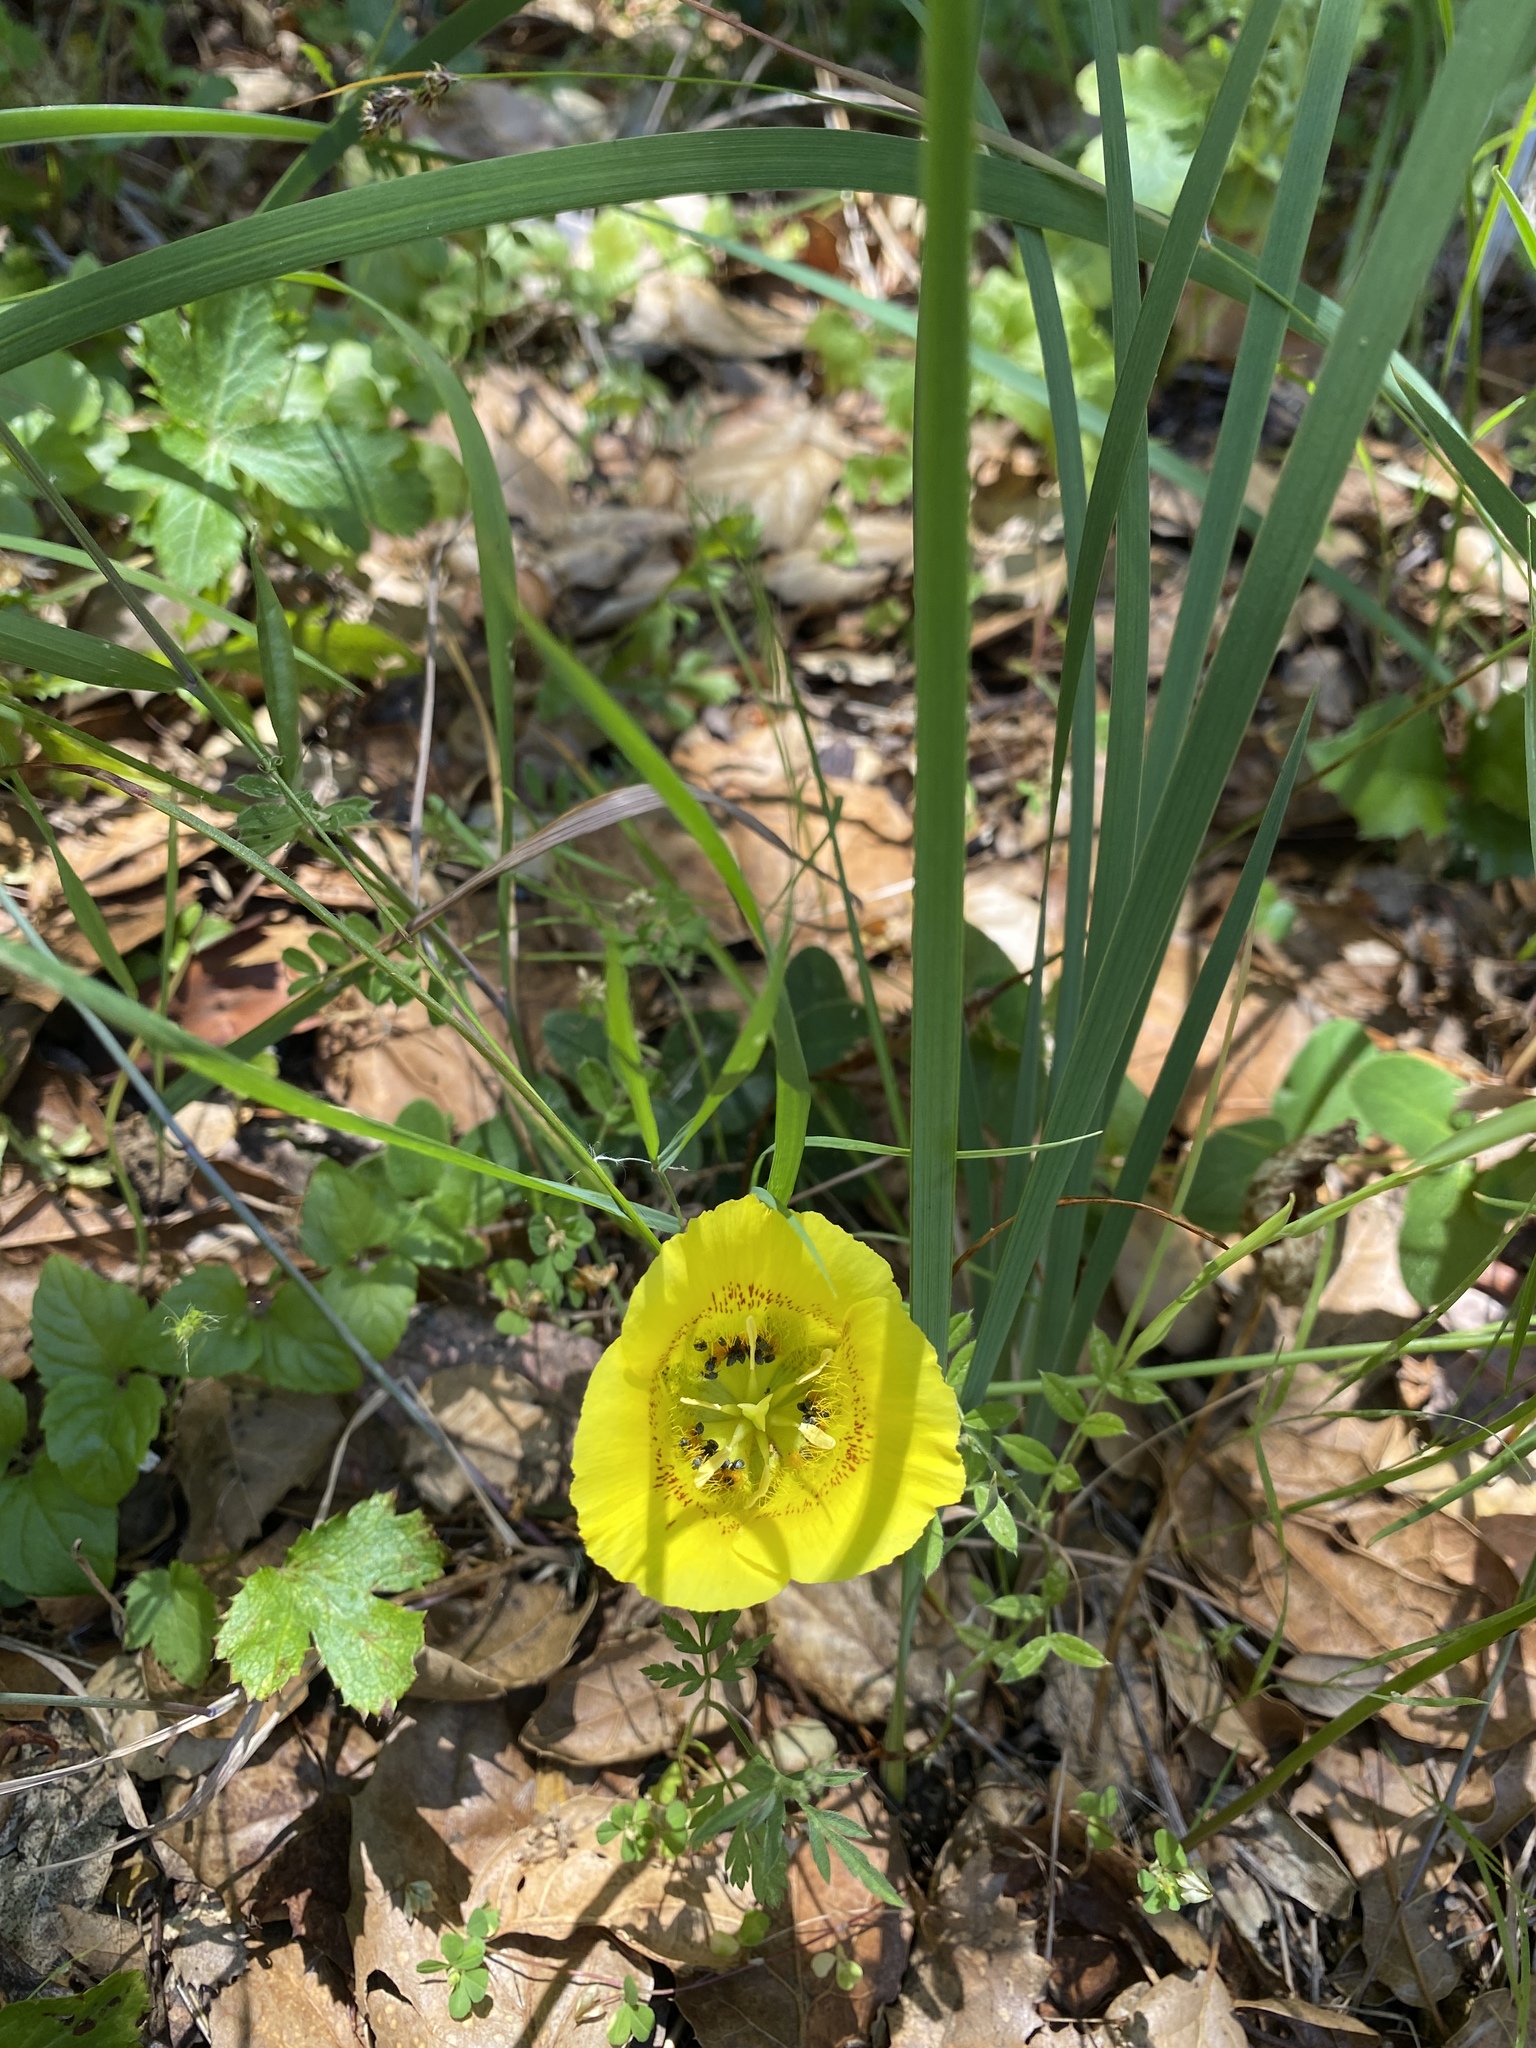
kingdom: Plantae
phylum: Tracheophyta
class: Liliopsida
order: Liliales
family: Liliaceae
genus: Calochortus
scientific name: Calochortus luteus
